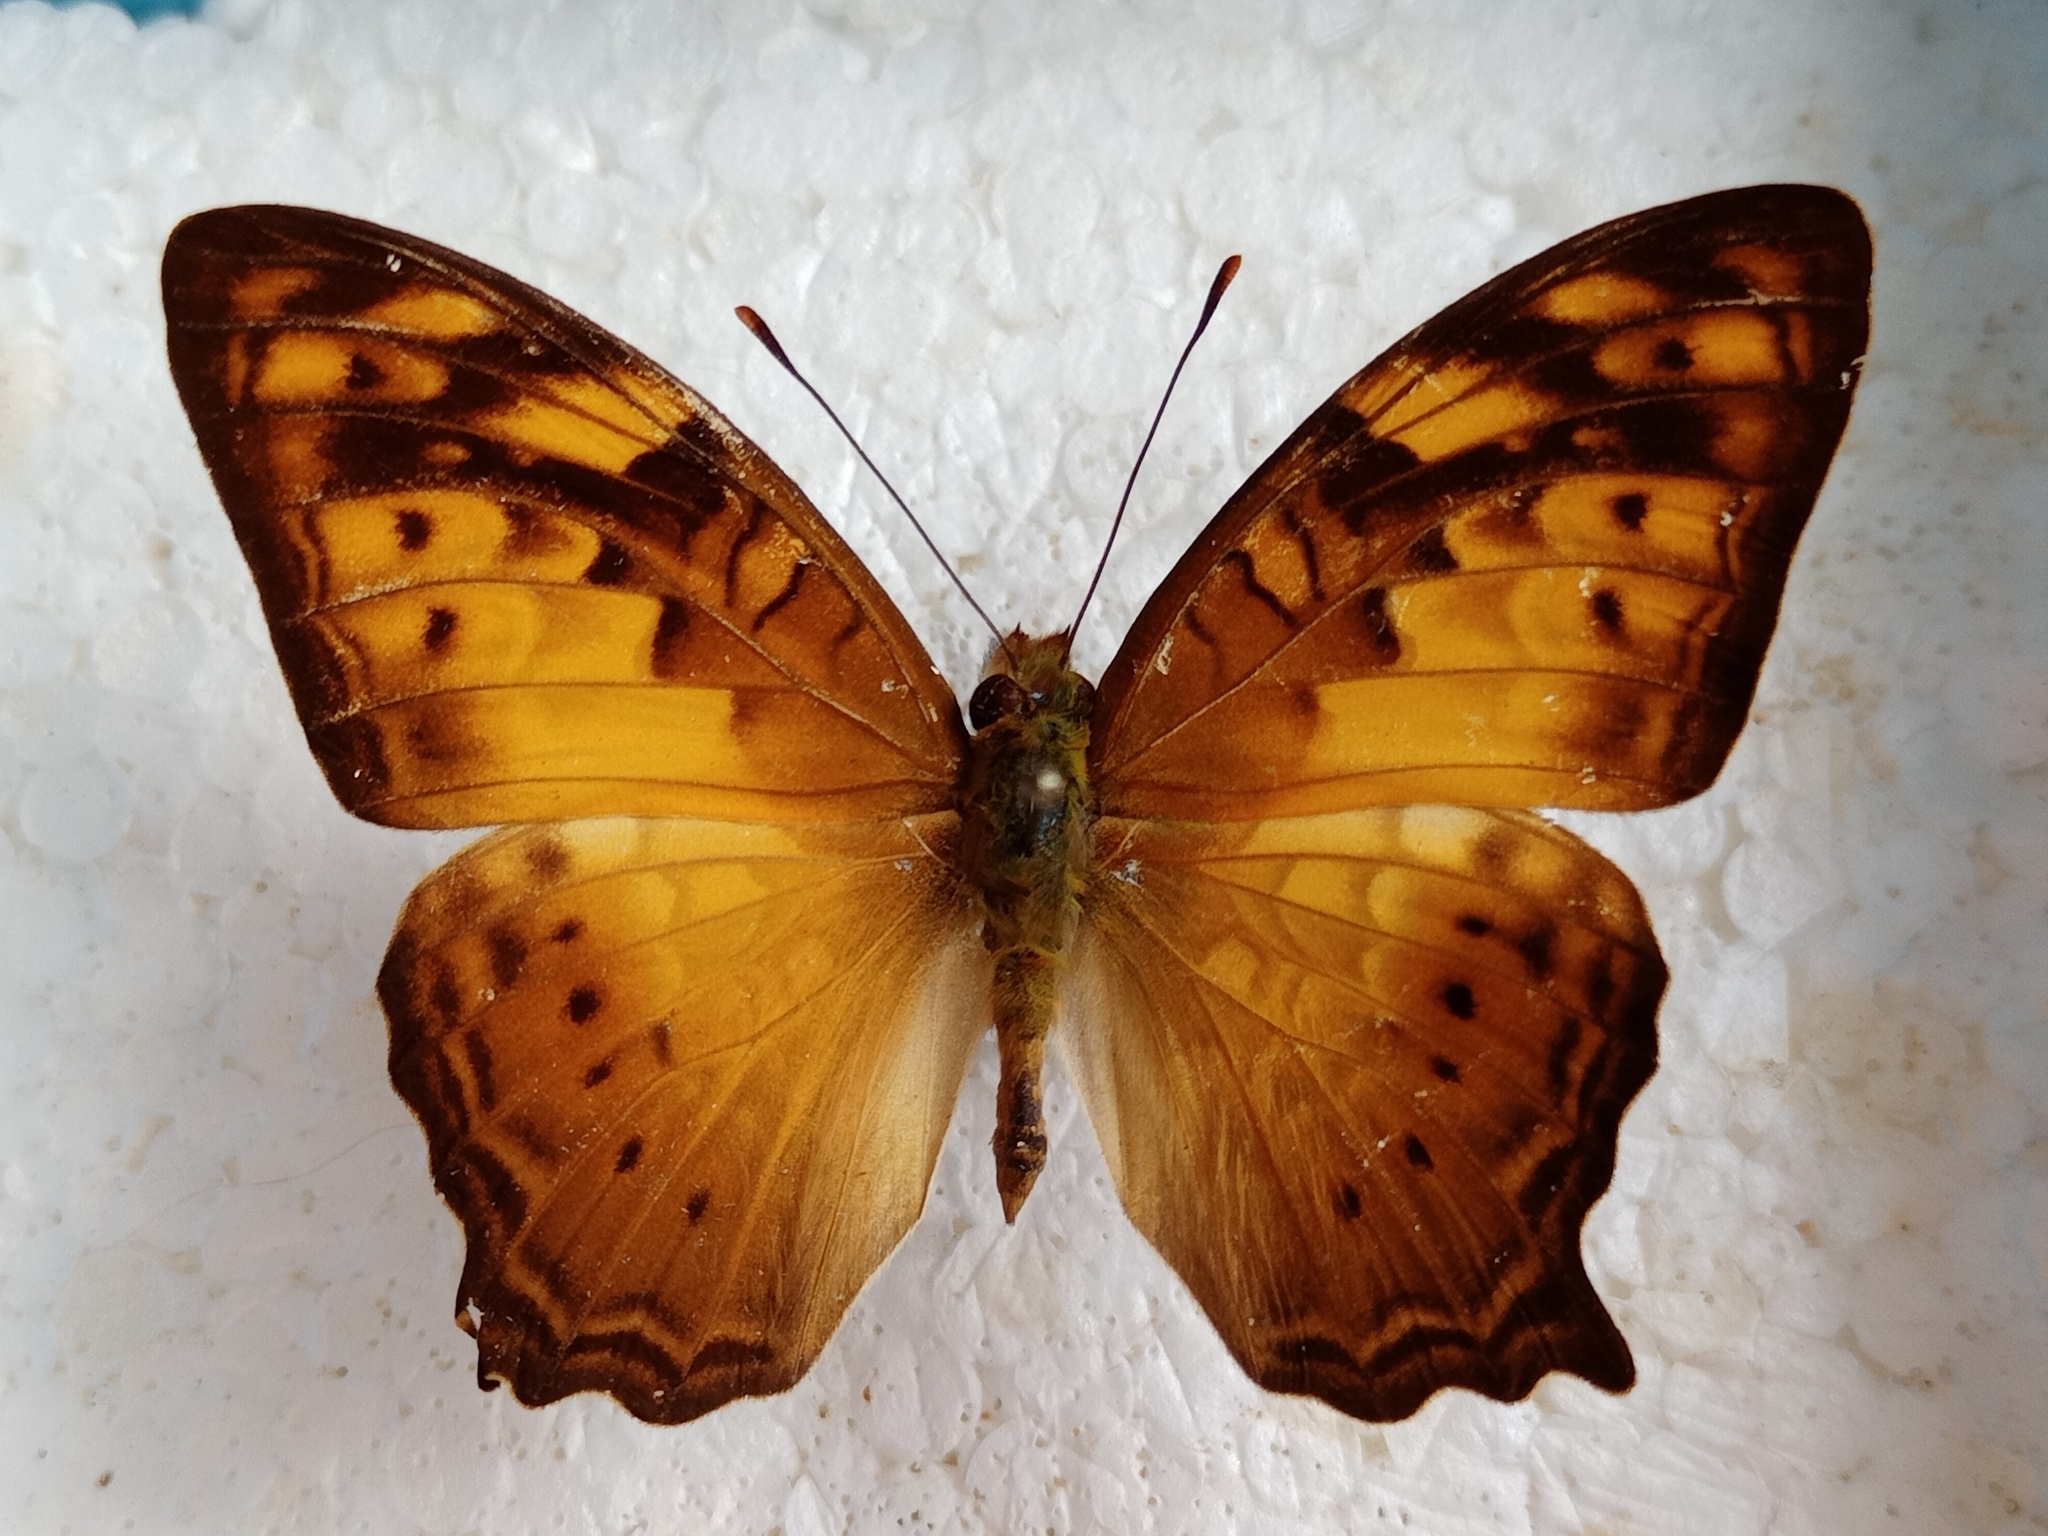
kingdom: Animalia
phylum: Arthropoda
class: Insecta
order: Lepidoptera
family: Nymphalidae
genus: Vagrans
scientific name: Vagrans sinha
